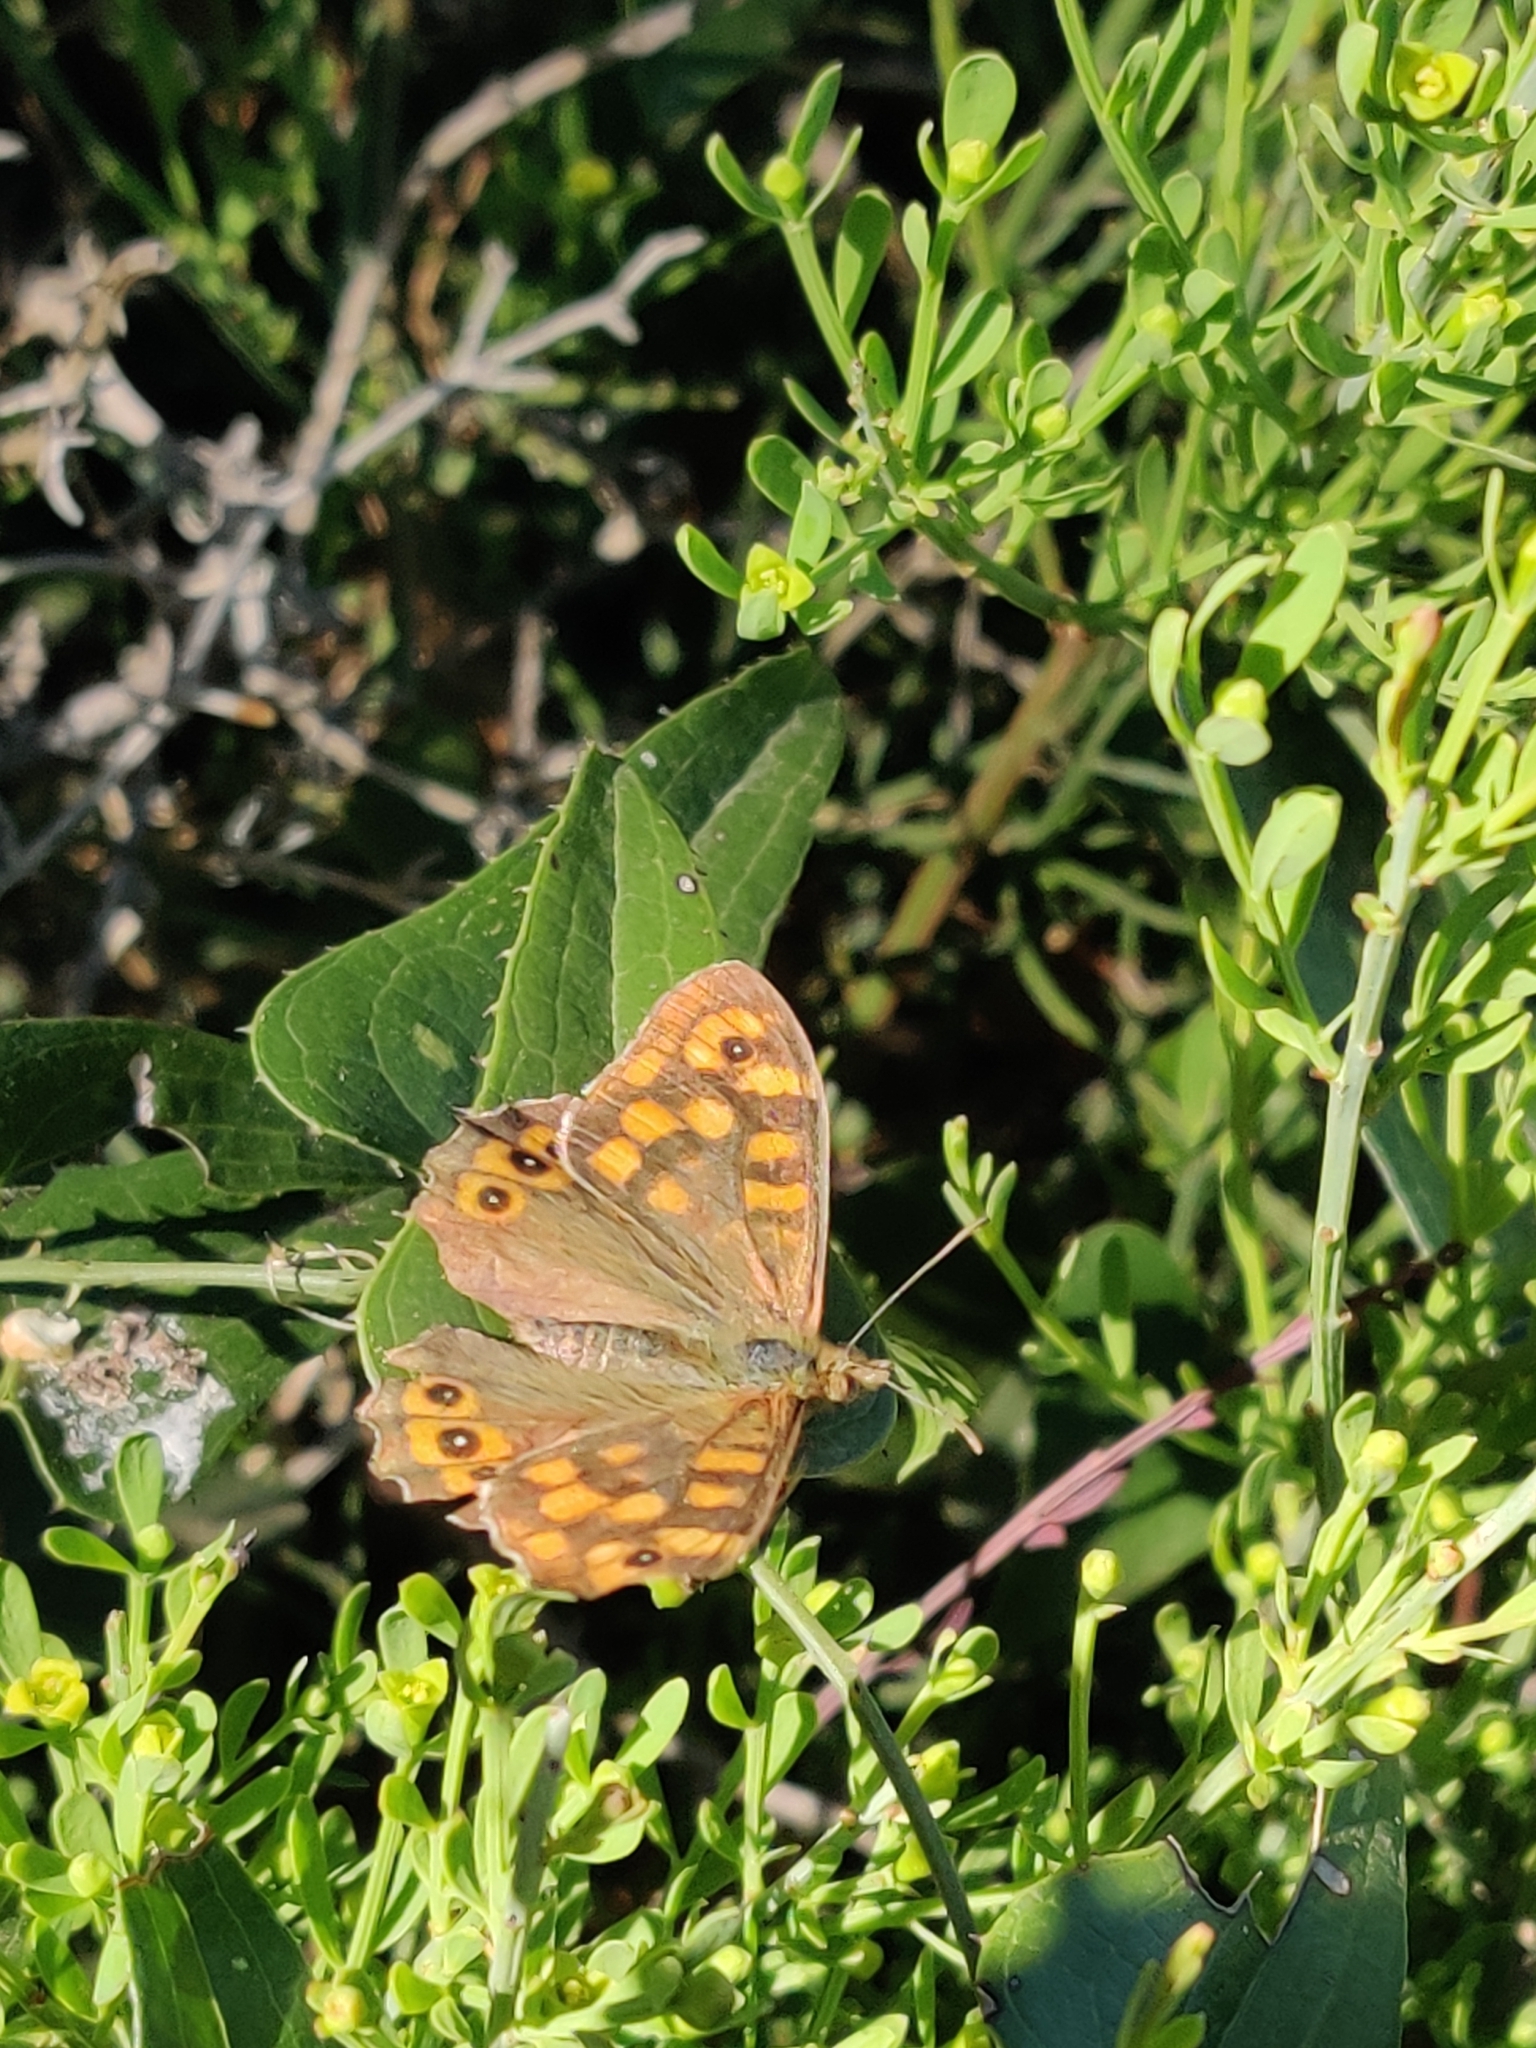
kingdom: Animalia
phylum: Arthropoda
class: Insecta
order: Lepidoptera
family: Nymphalidae
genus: Pararge
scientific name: Pararge aegeria
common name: Speckled wood
